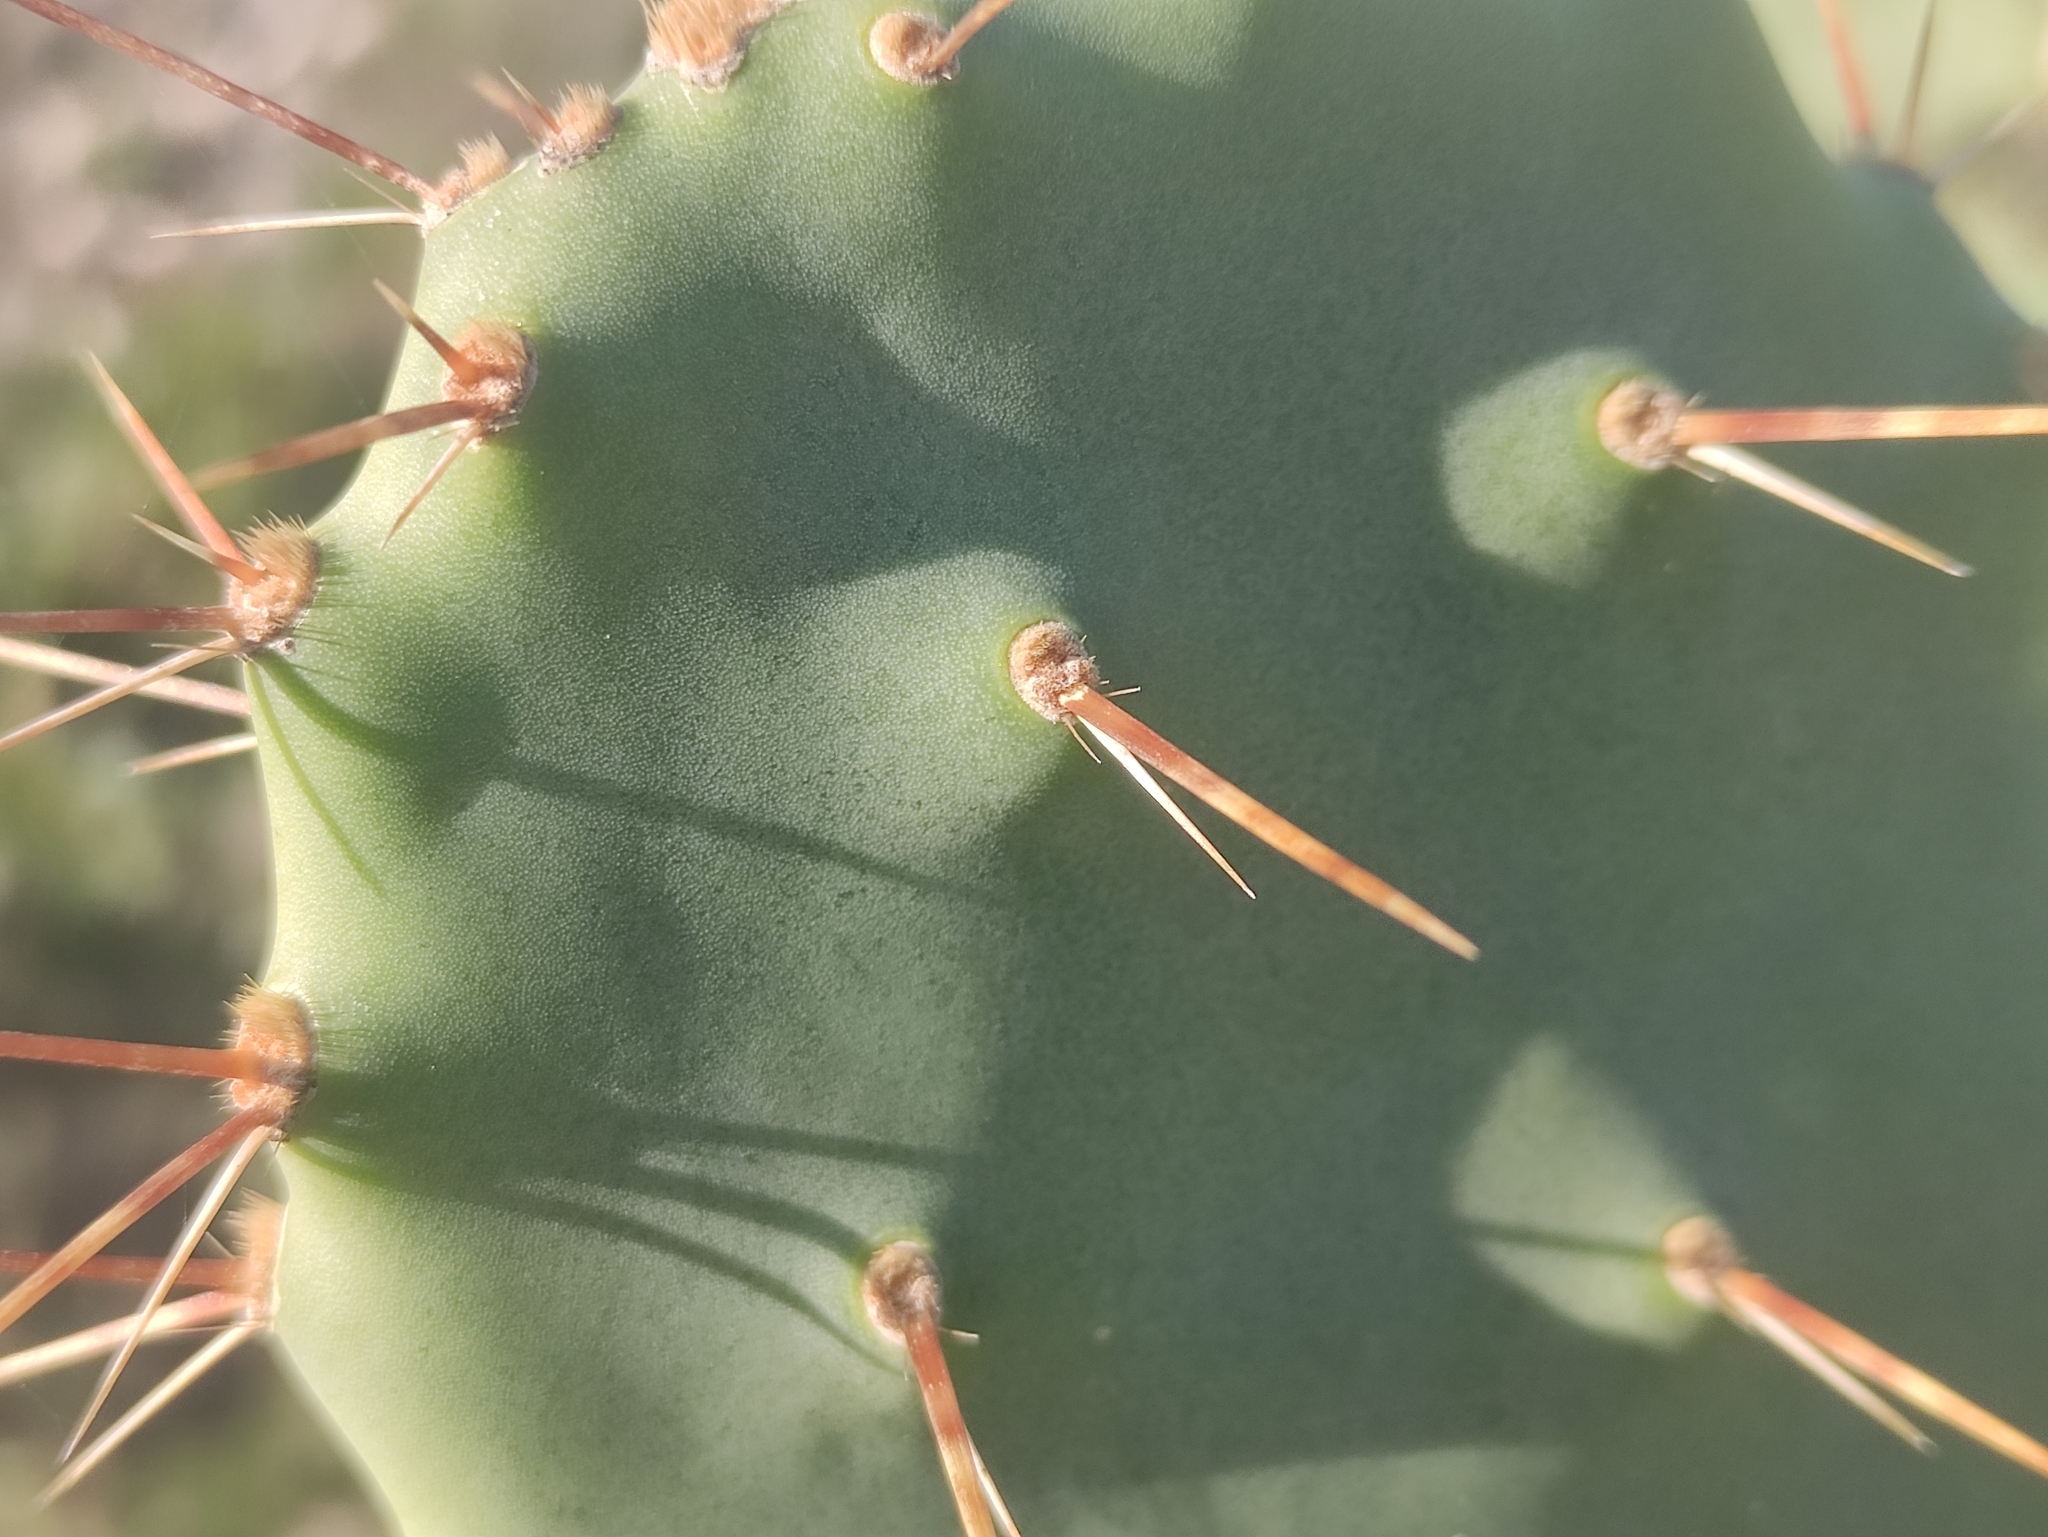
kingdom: Plantae
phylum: Tracheophyta
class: Magnoliopsida
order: Caryophyllales
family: Cactaceae
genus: Opuntia
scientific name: Opuntia elatior
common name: Tuna
